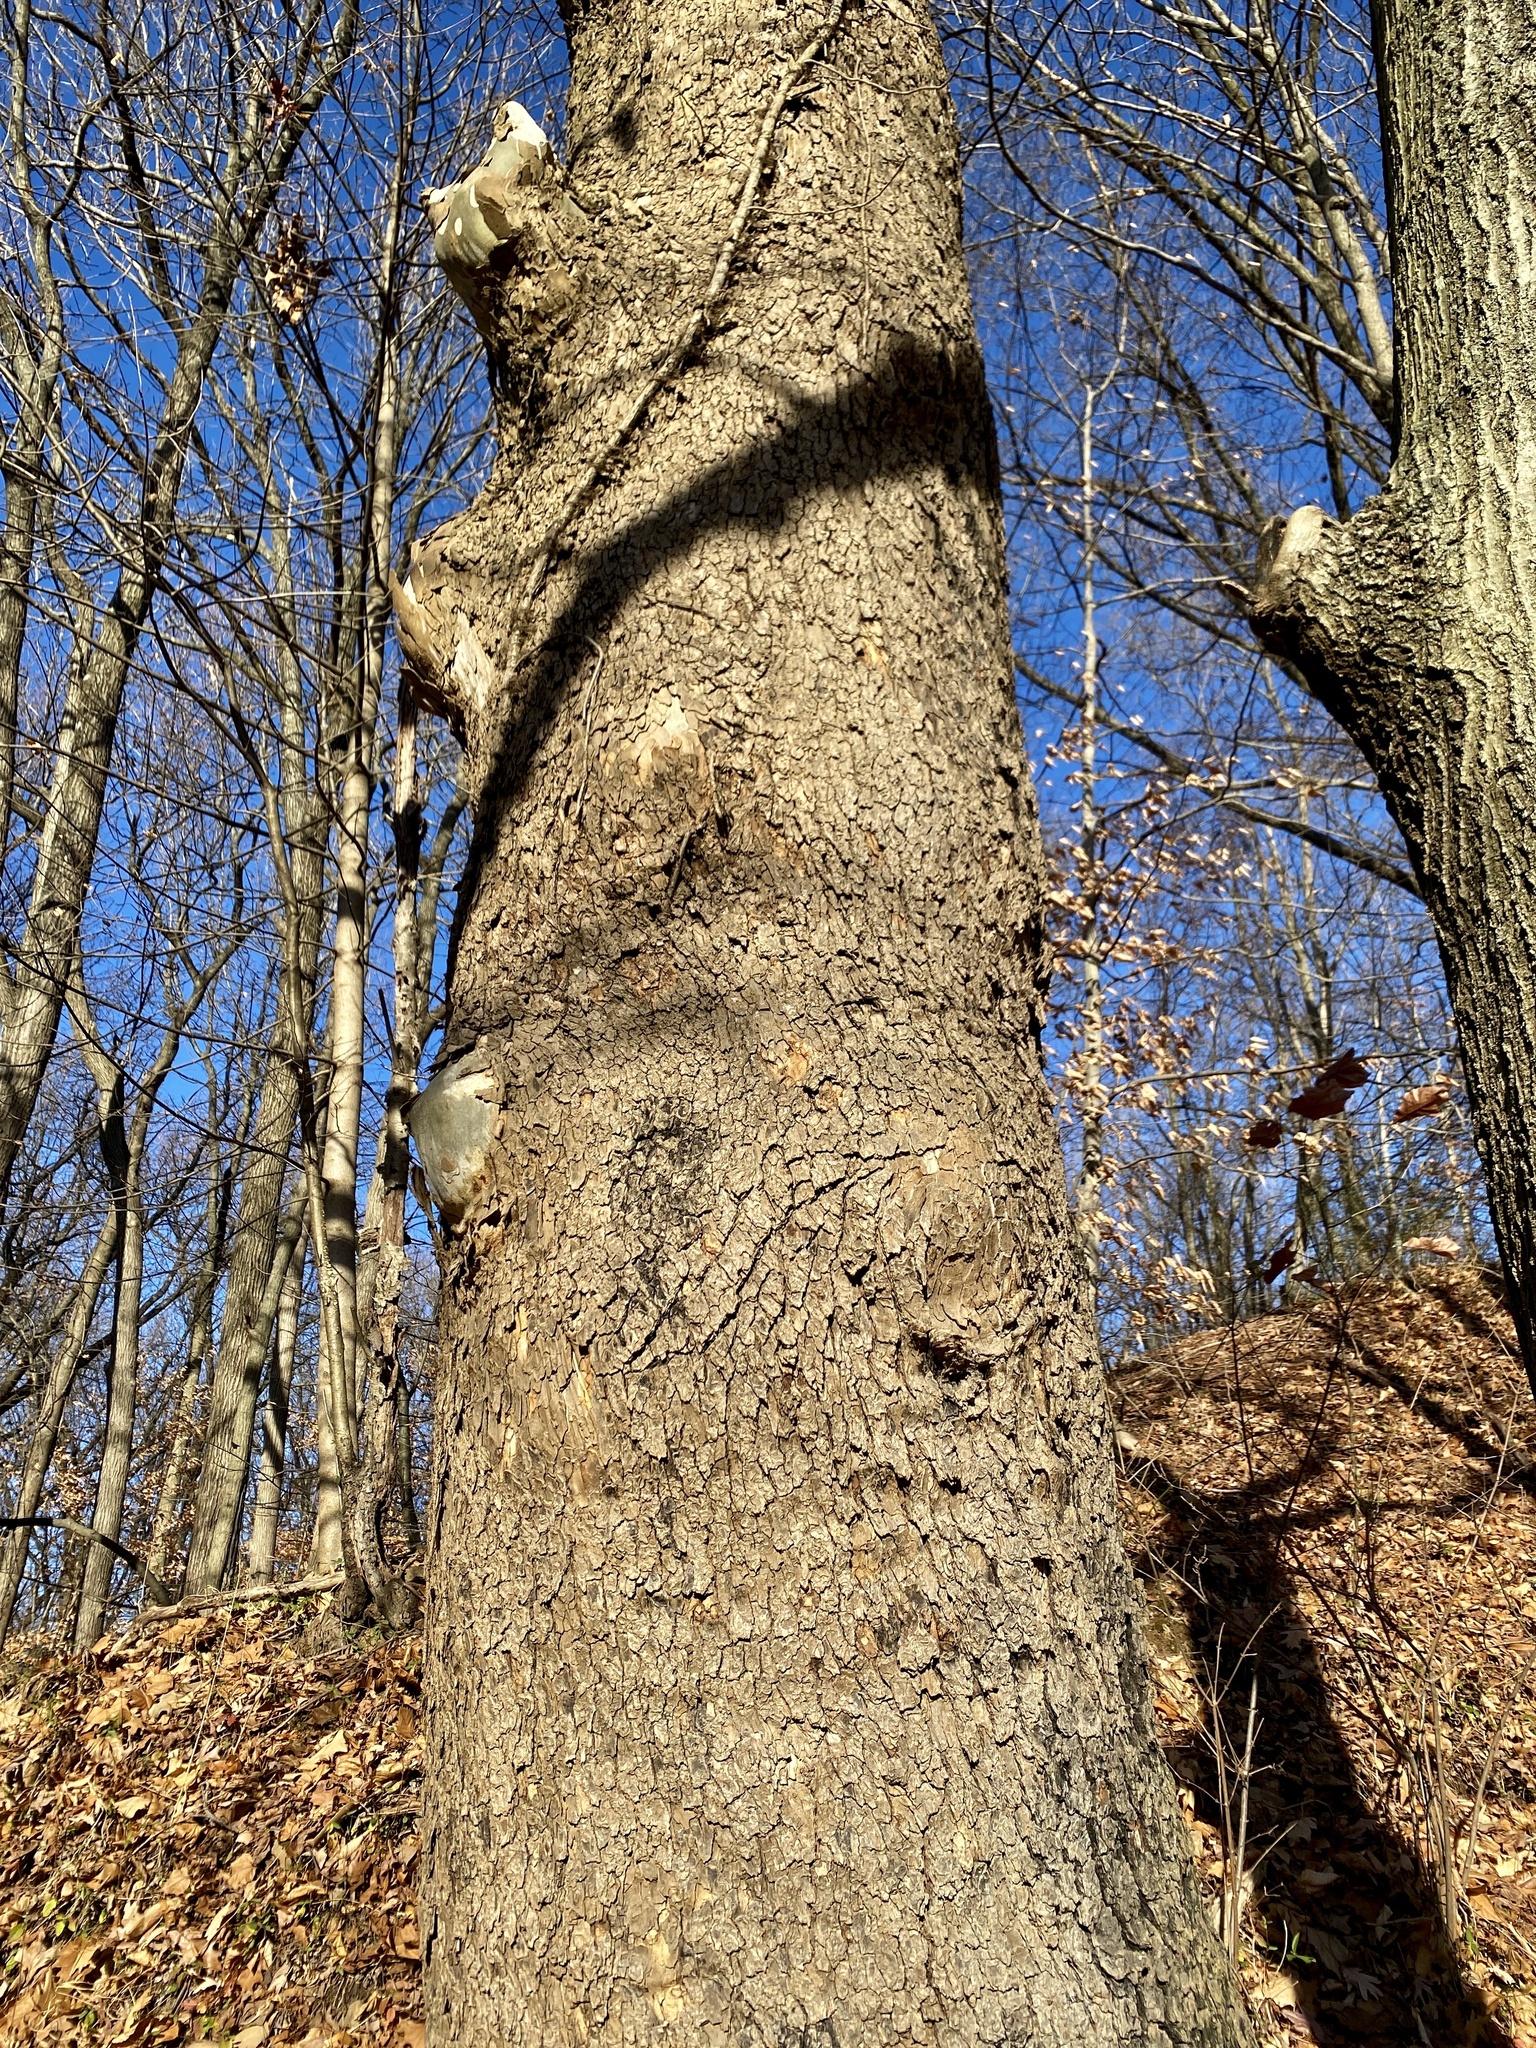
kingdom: Plantae
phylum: Tracheophyta
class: Magnoliopsida
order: Proteales
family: Platanaceae
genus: Platanus
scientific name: Platanus occidentalis
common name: American sycamore
